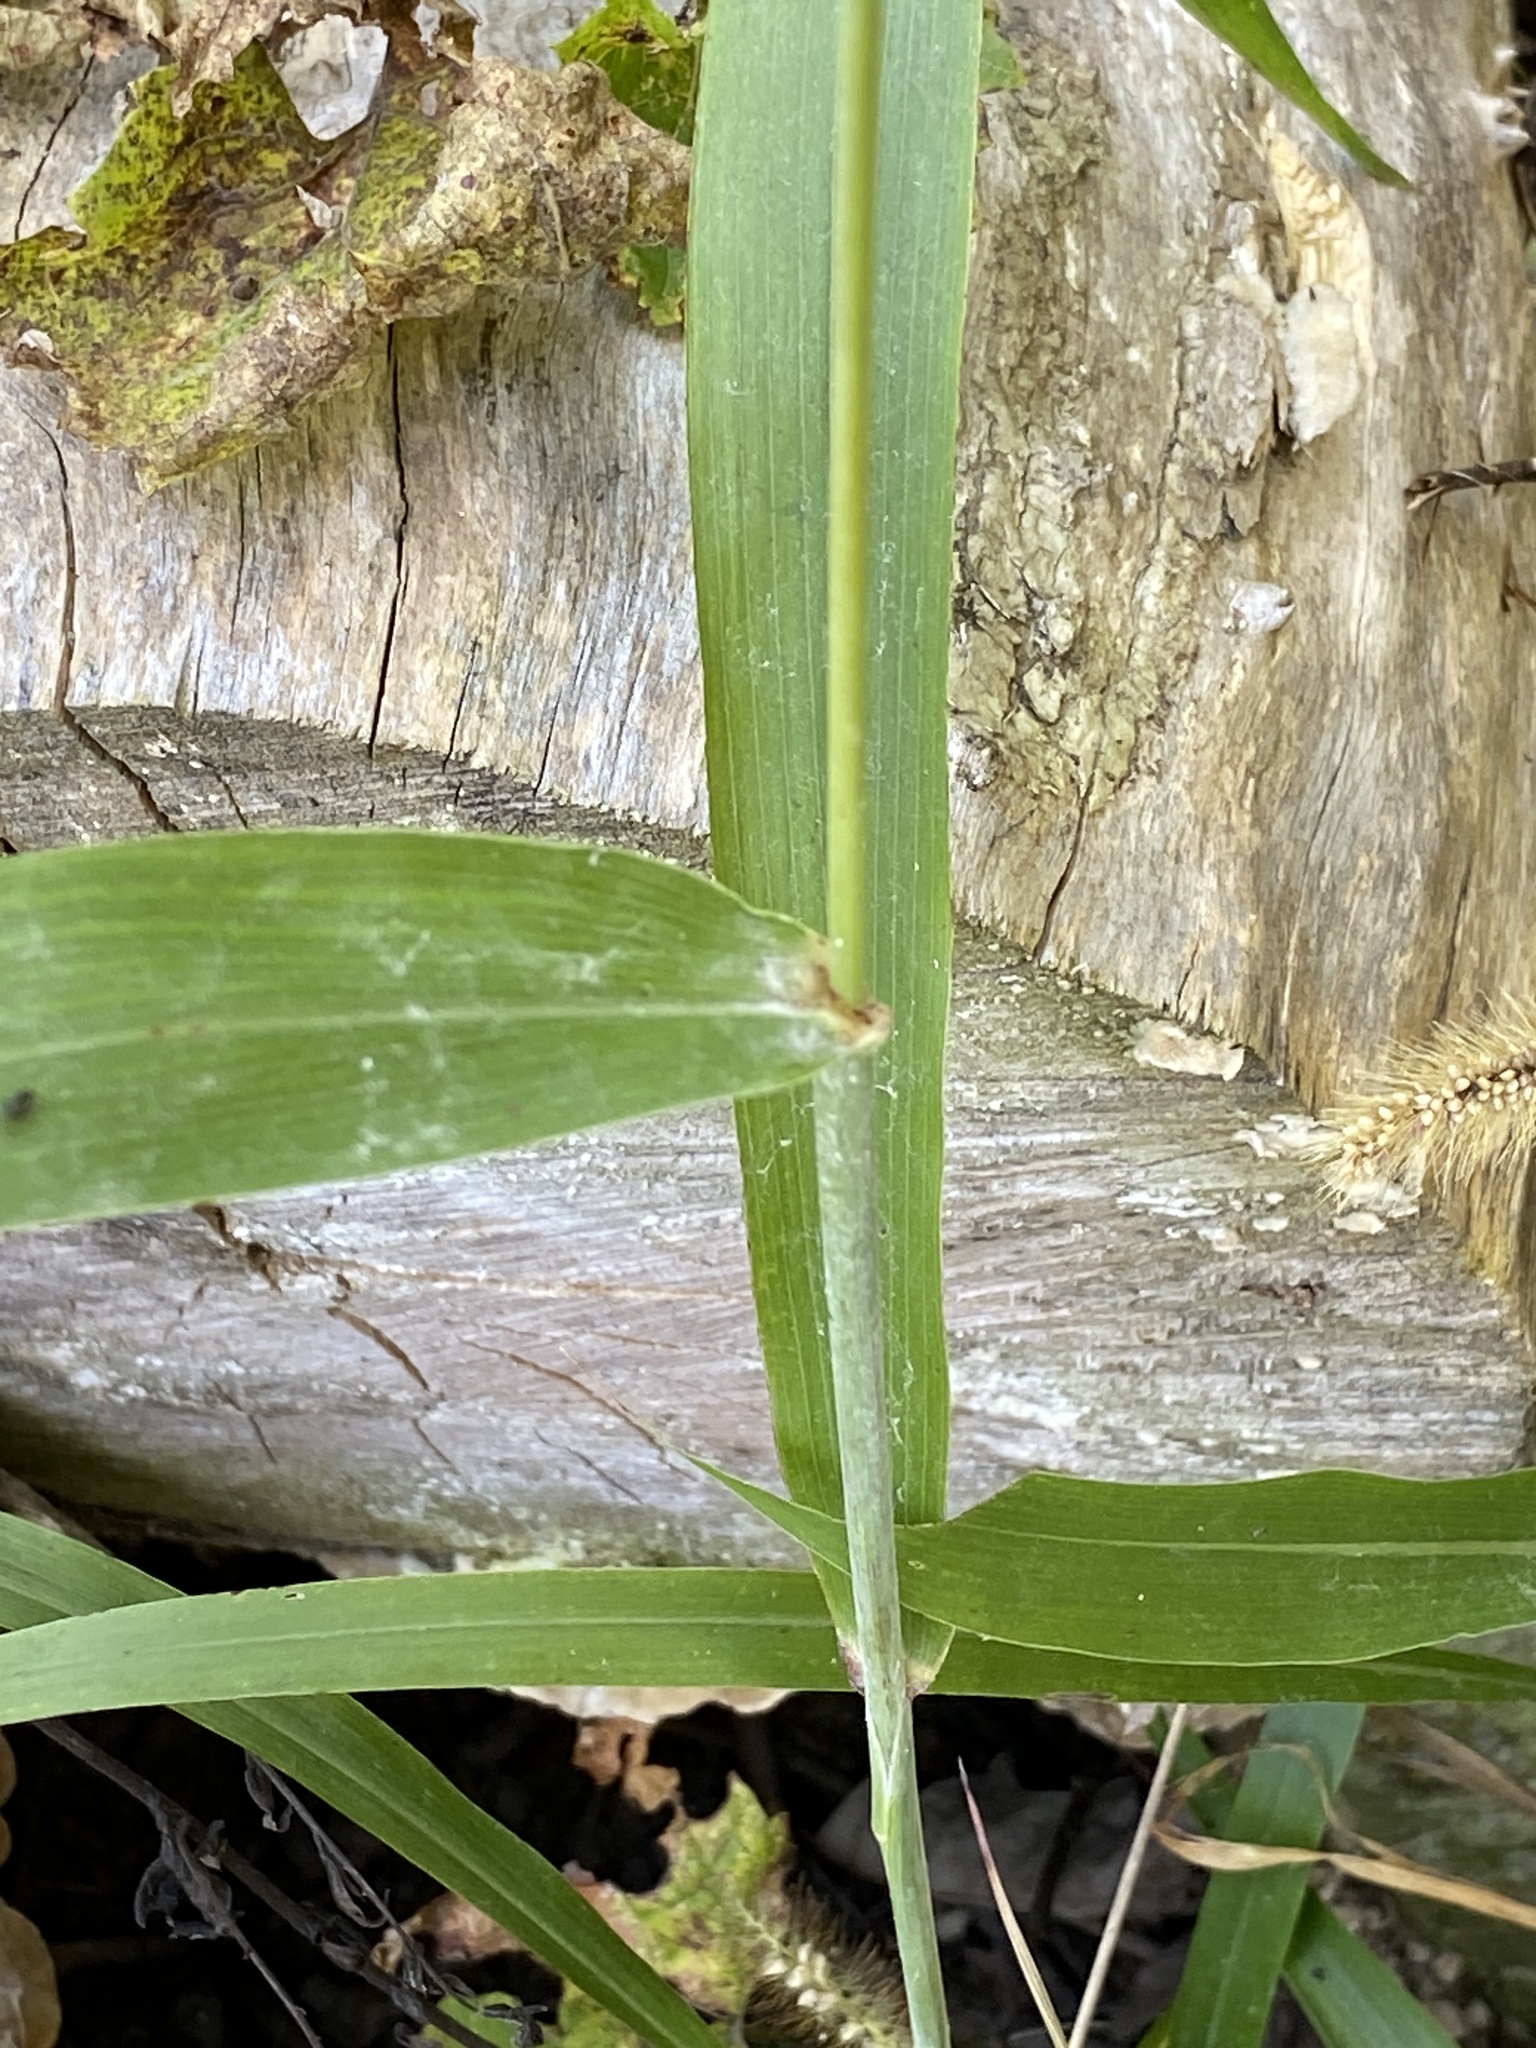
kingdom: Plantae
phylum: Tracheophyta
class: Liliopsida
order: Poales
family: Poaceae
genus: Sorghum
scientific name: Sorghum bicolor
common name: Sorghum
